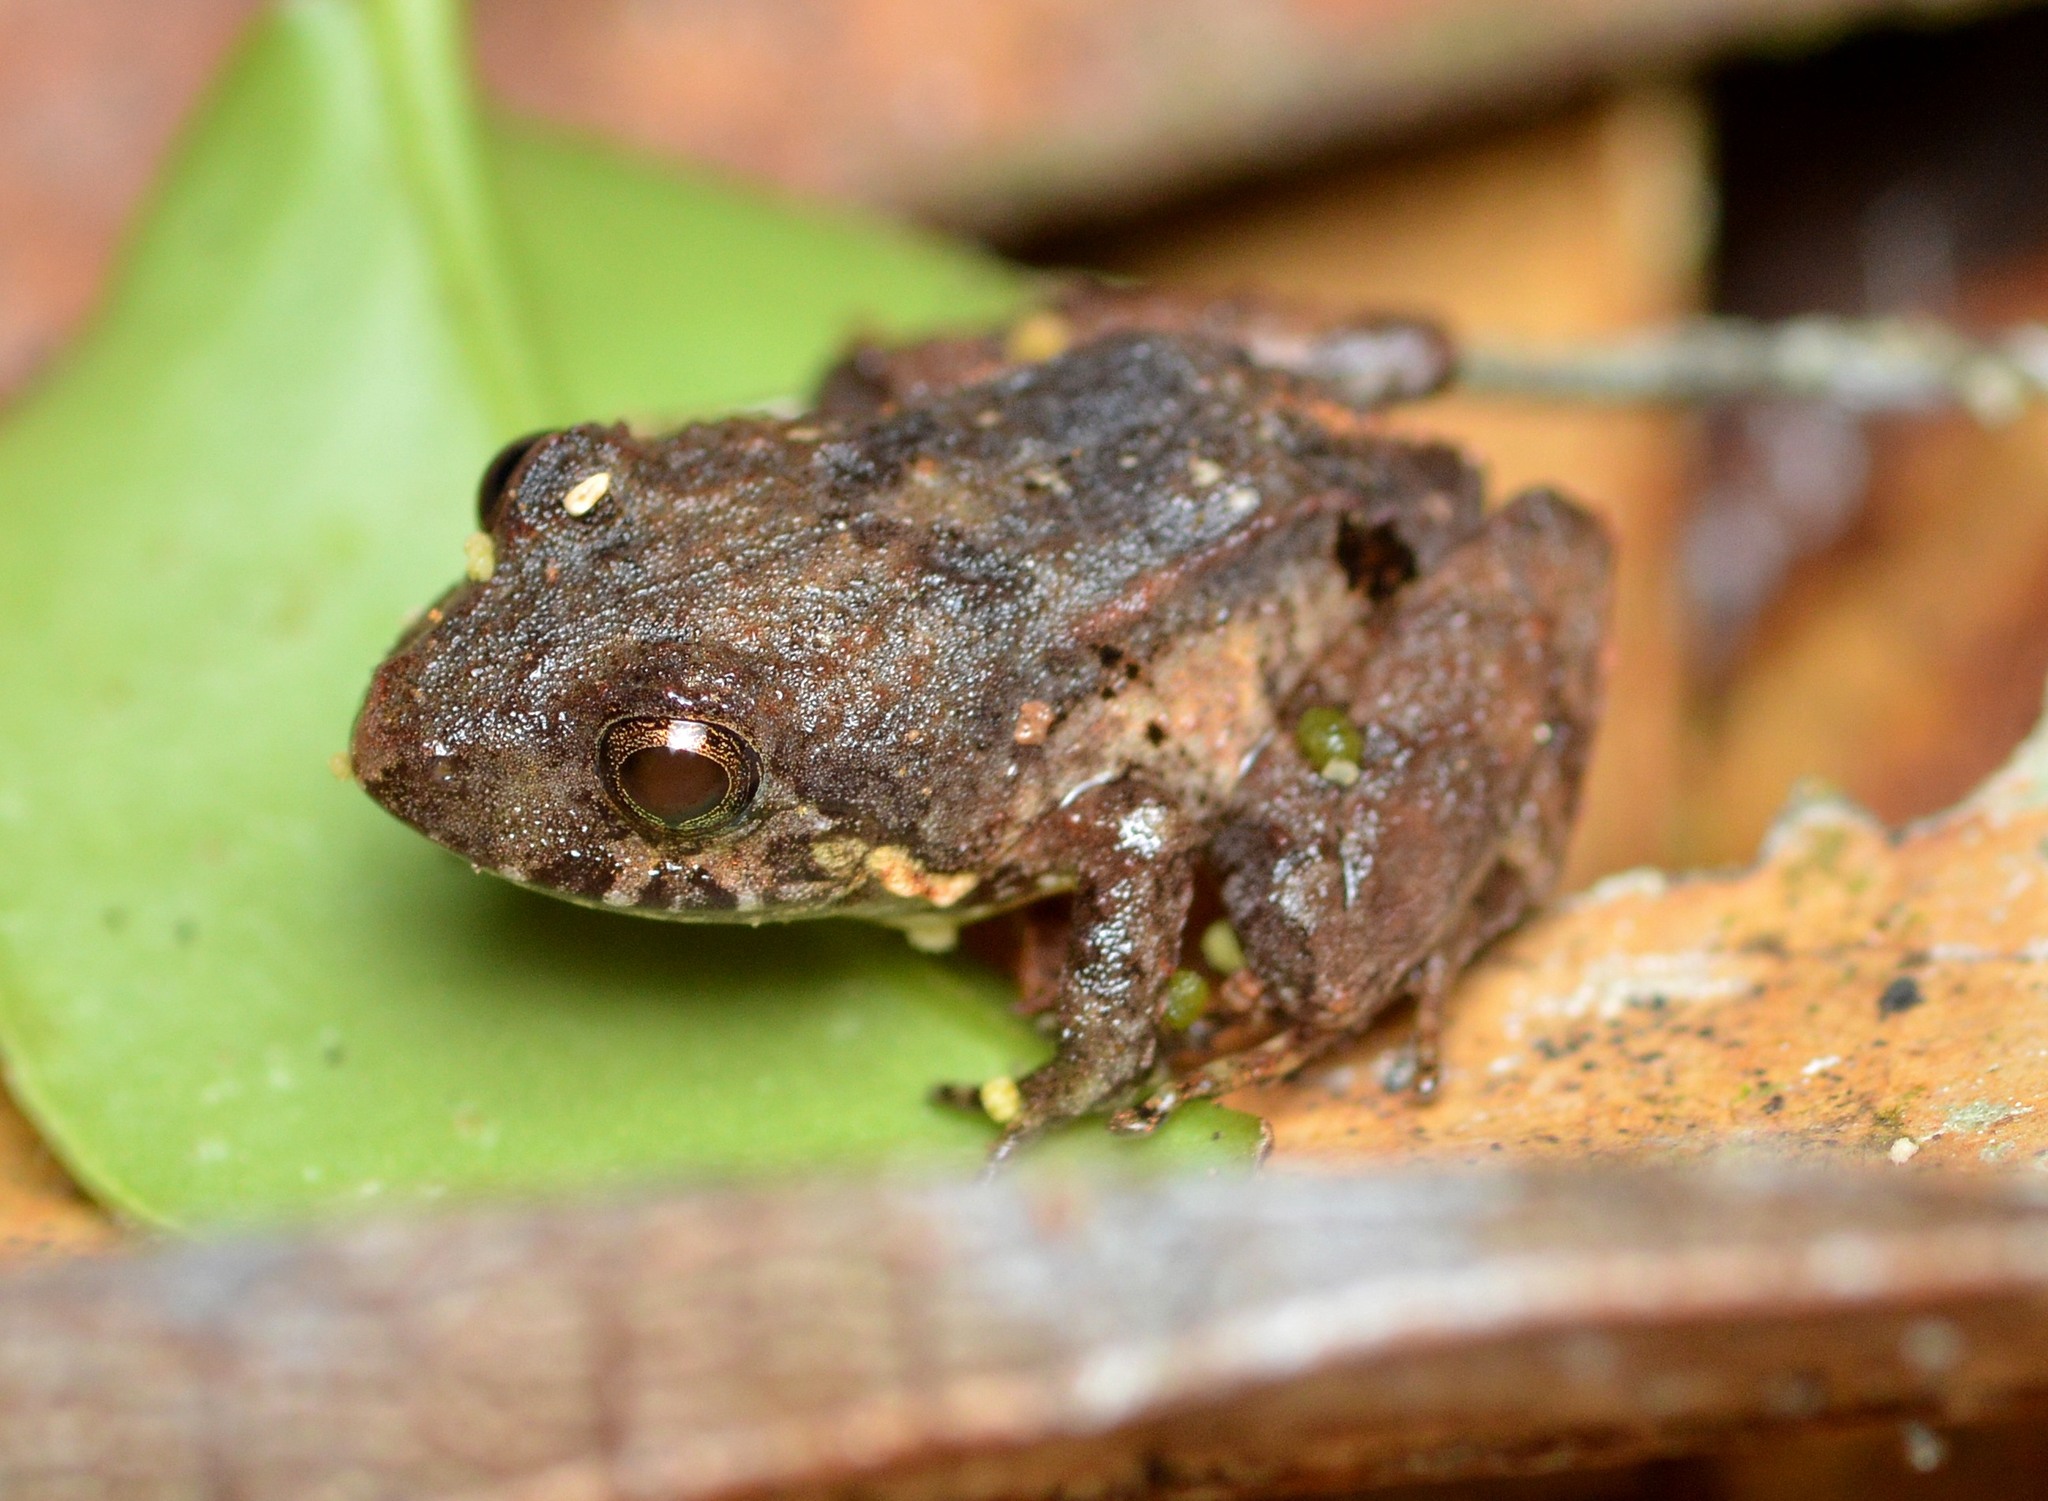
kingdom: Animalia
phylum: Chordata
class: Amphibia
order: Anura
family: Craugastoridae
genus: Niceforonia
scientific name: Niceforonia nigrovittata
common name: Black-banded robber frog
